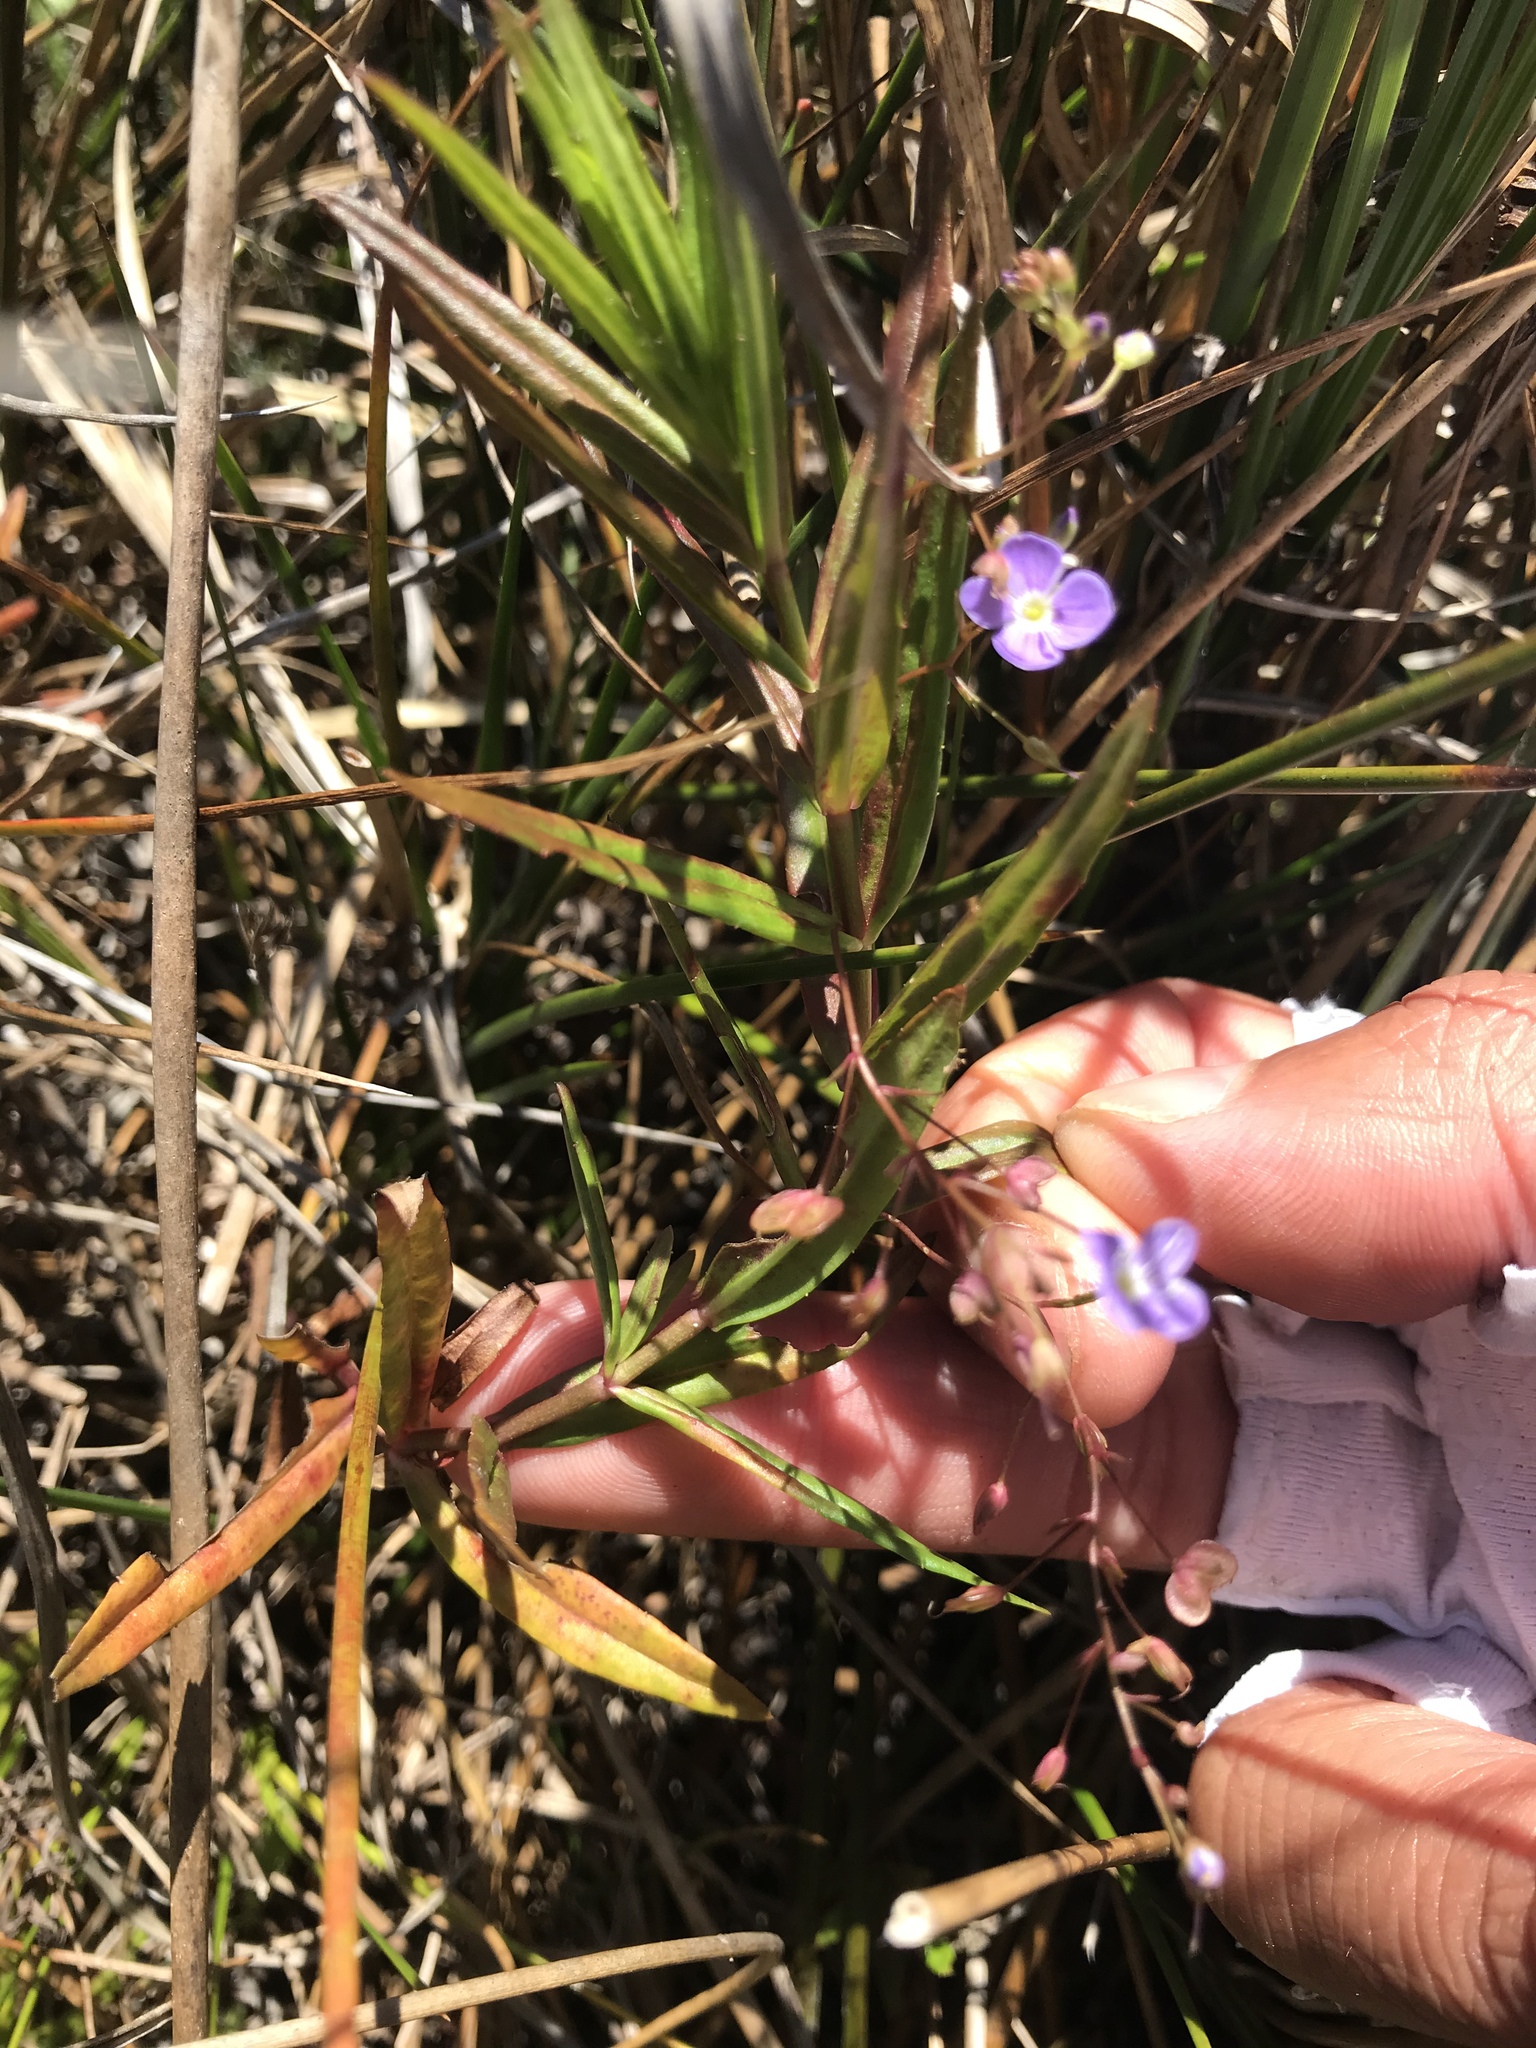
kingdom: Plantae
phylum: Tracheophyta
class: Magnoliopsida
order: Lamiales
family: Plantaginaceae
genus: Veronica
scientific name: Veronica scutellata
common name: Marsh speedwell
